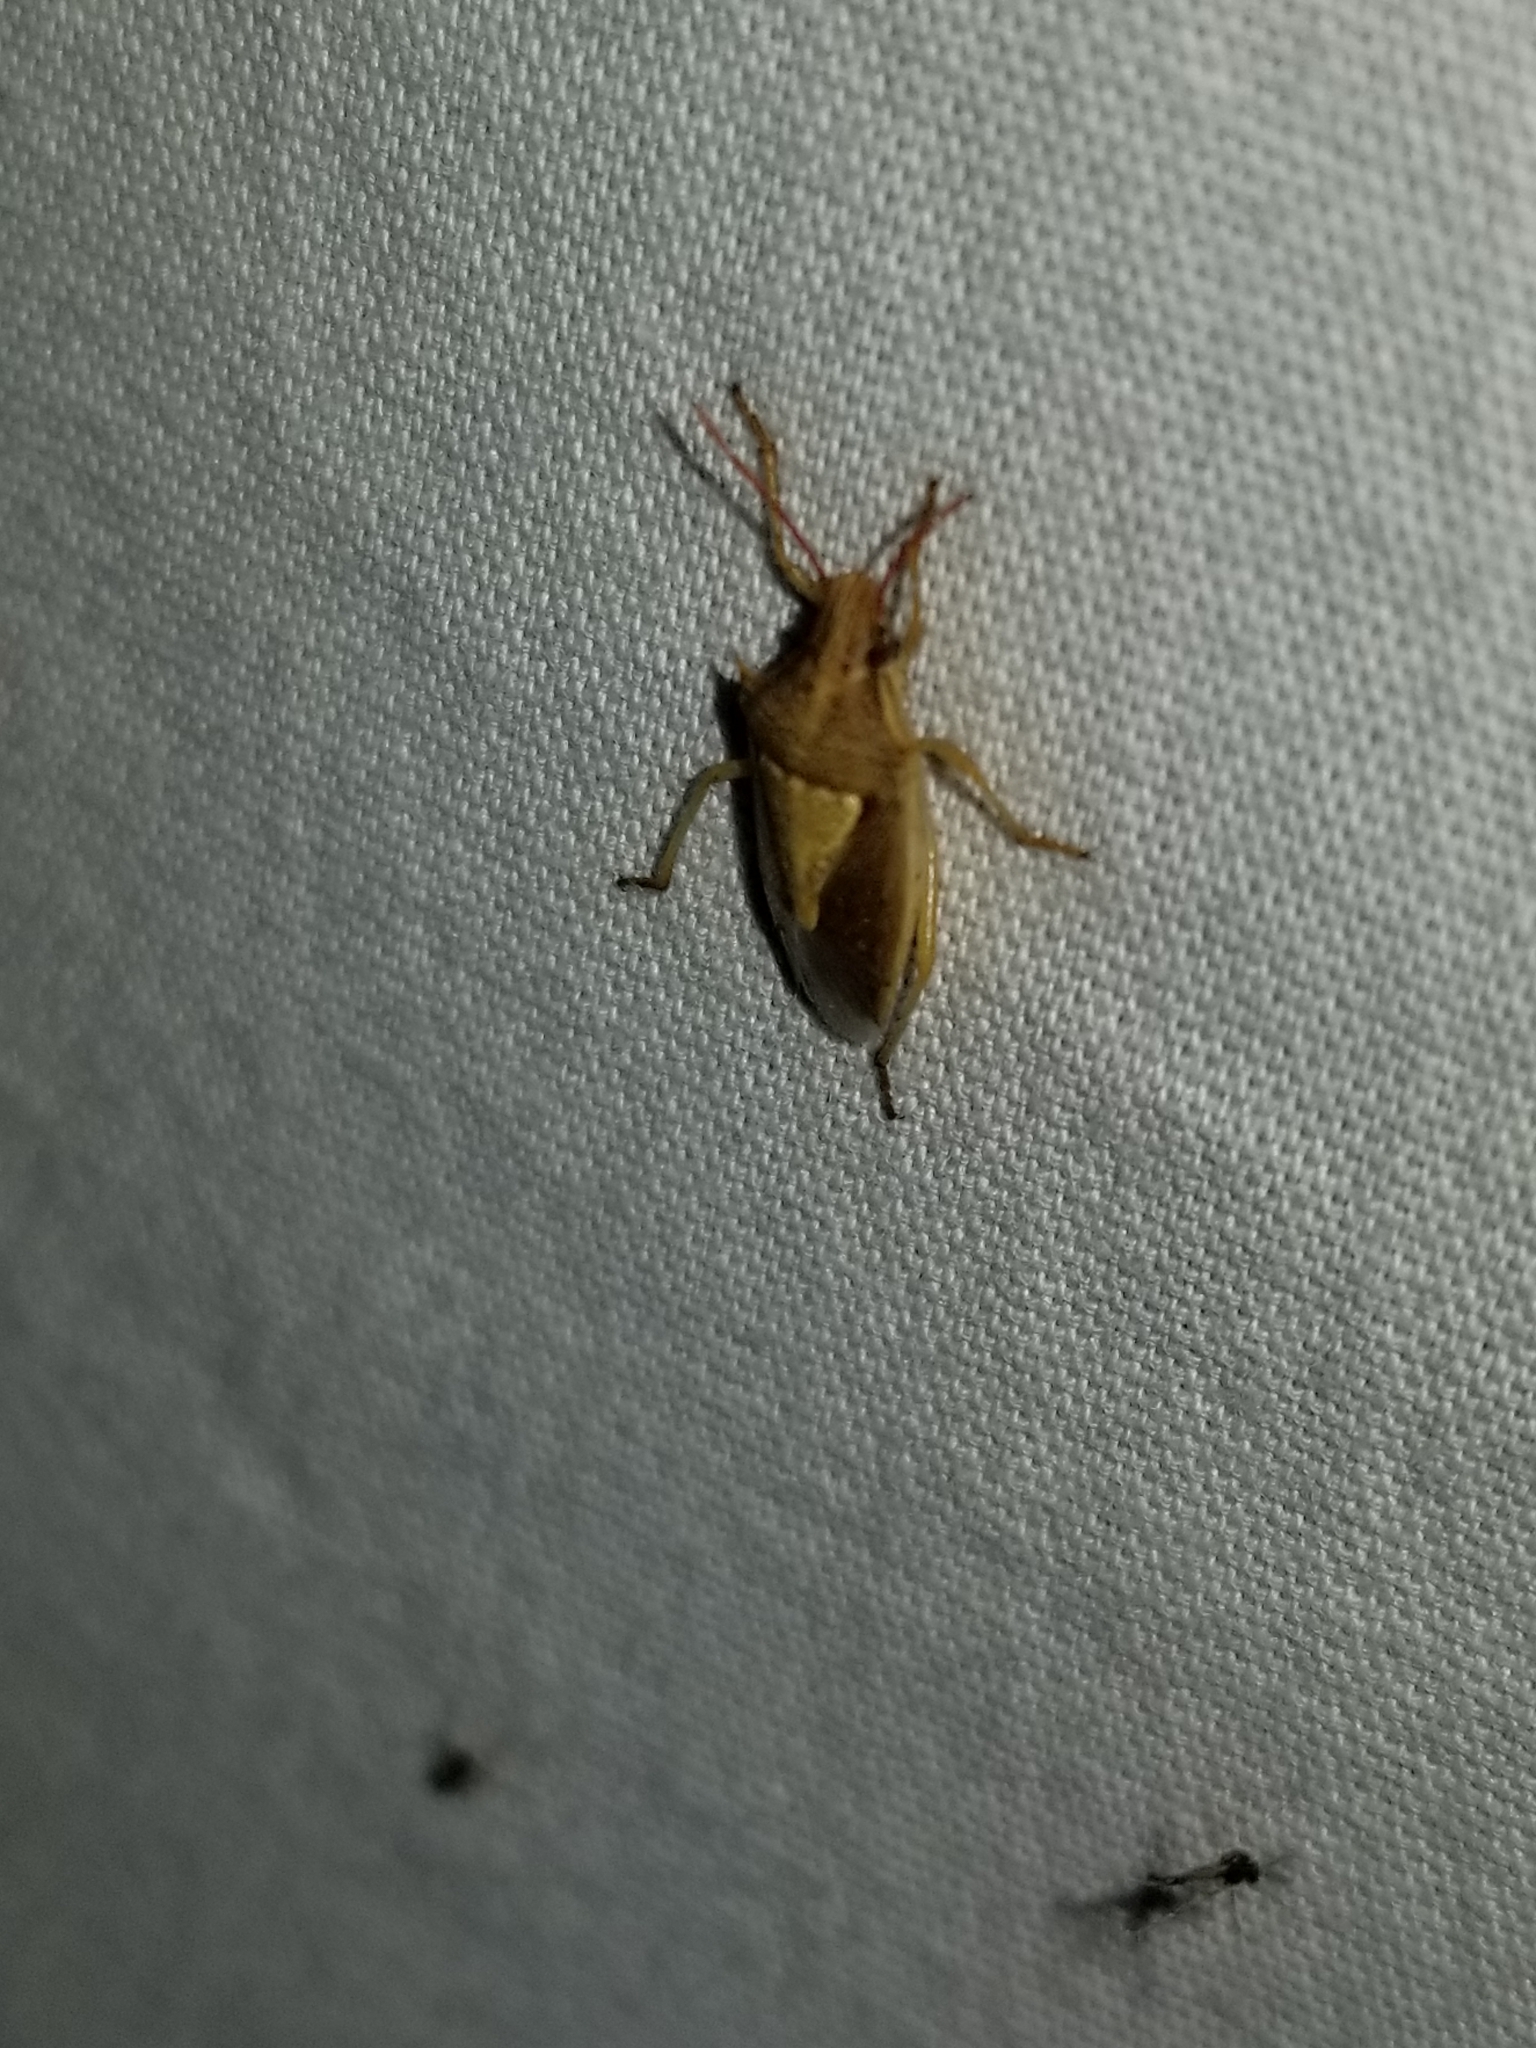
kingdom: Animalia
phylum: Arthropoda
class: Insecta
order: Hemiptera
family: Pentatomidae
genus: Oebalus
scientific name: Oebalus pugnax
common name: Rice stink bug
